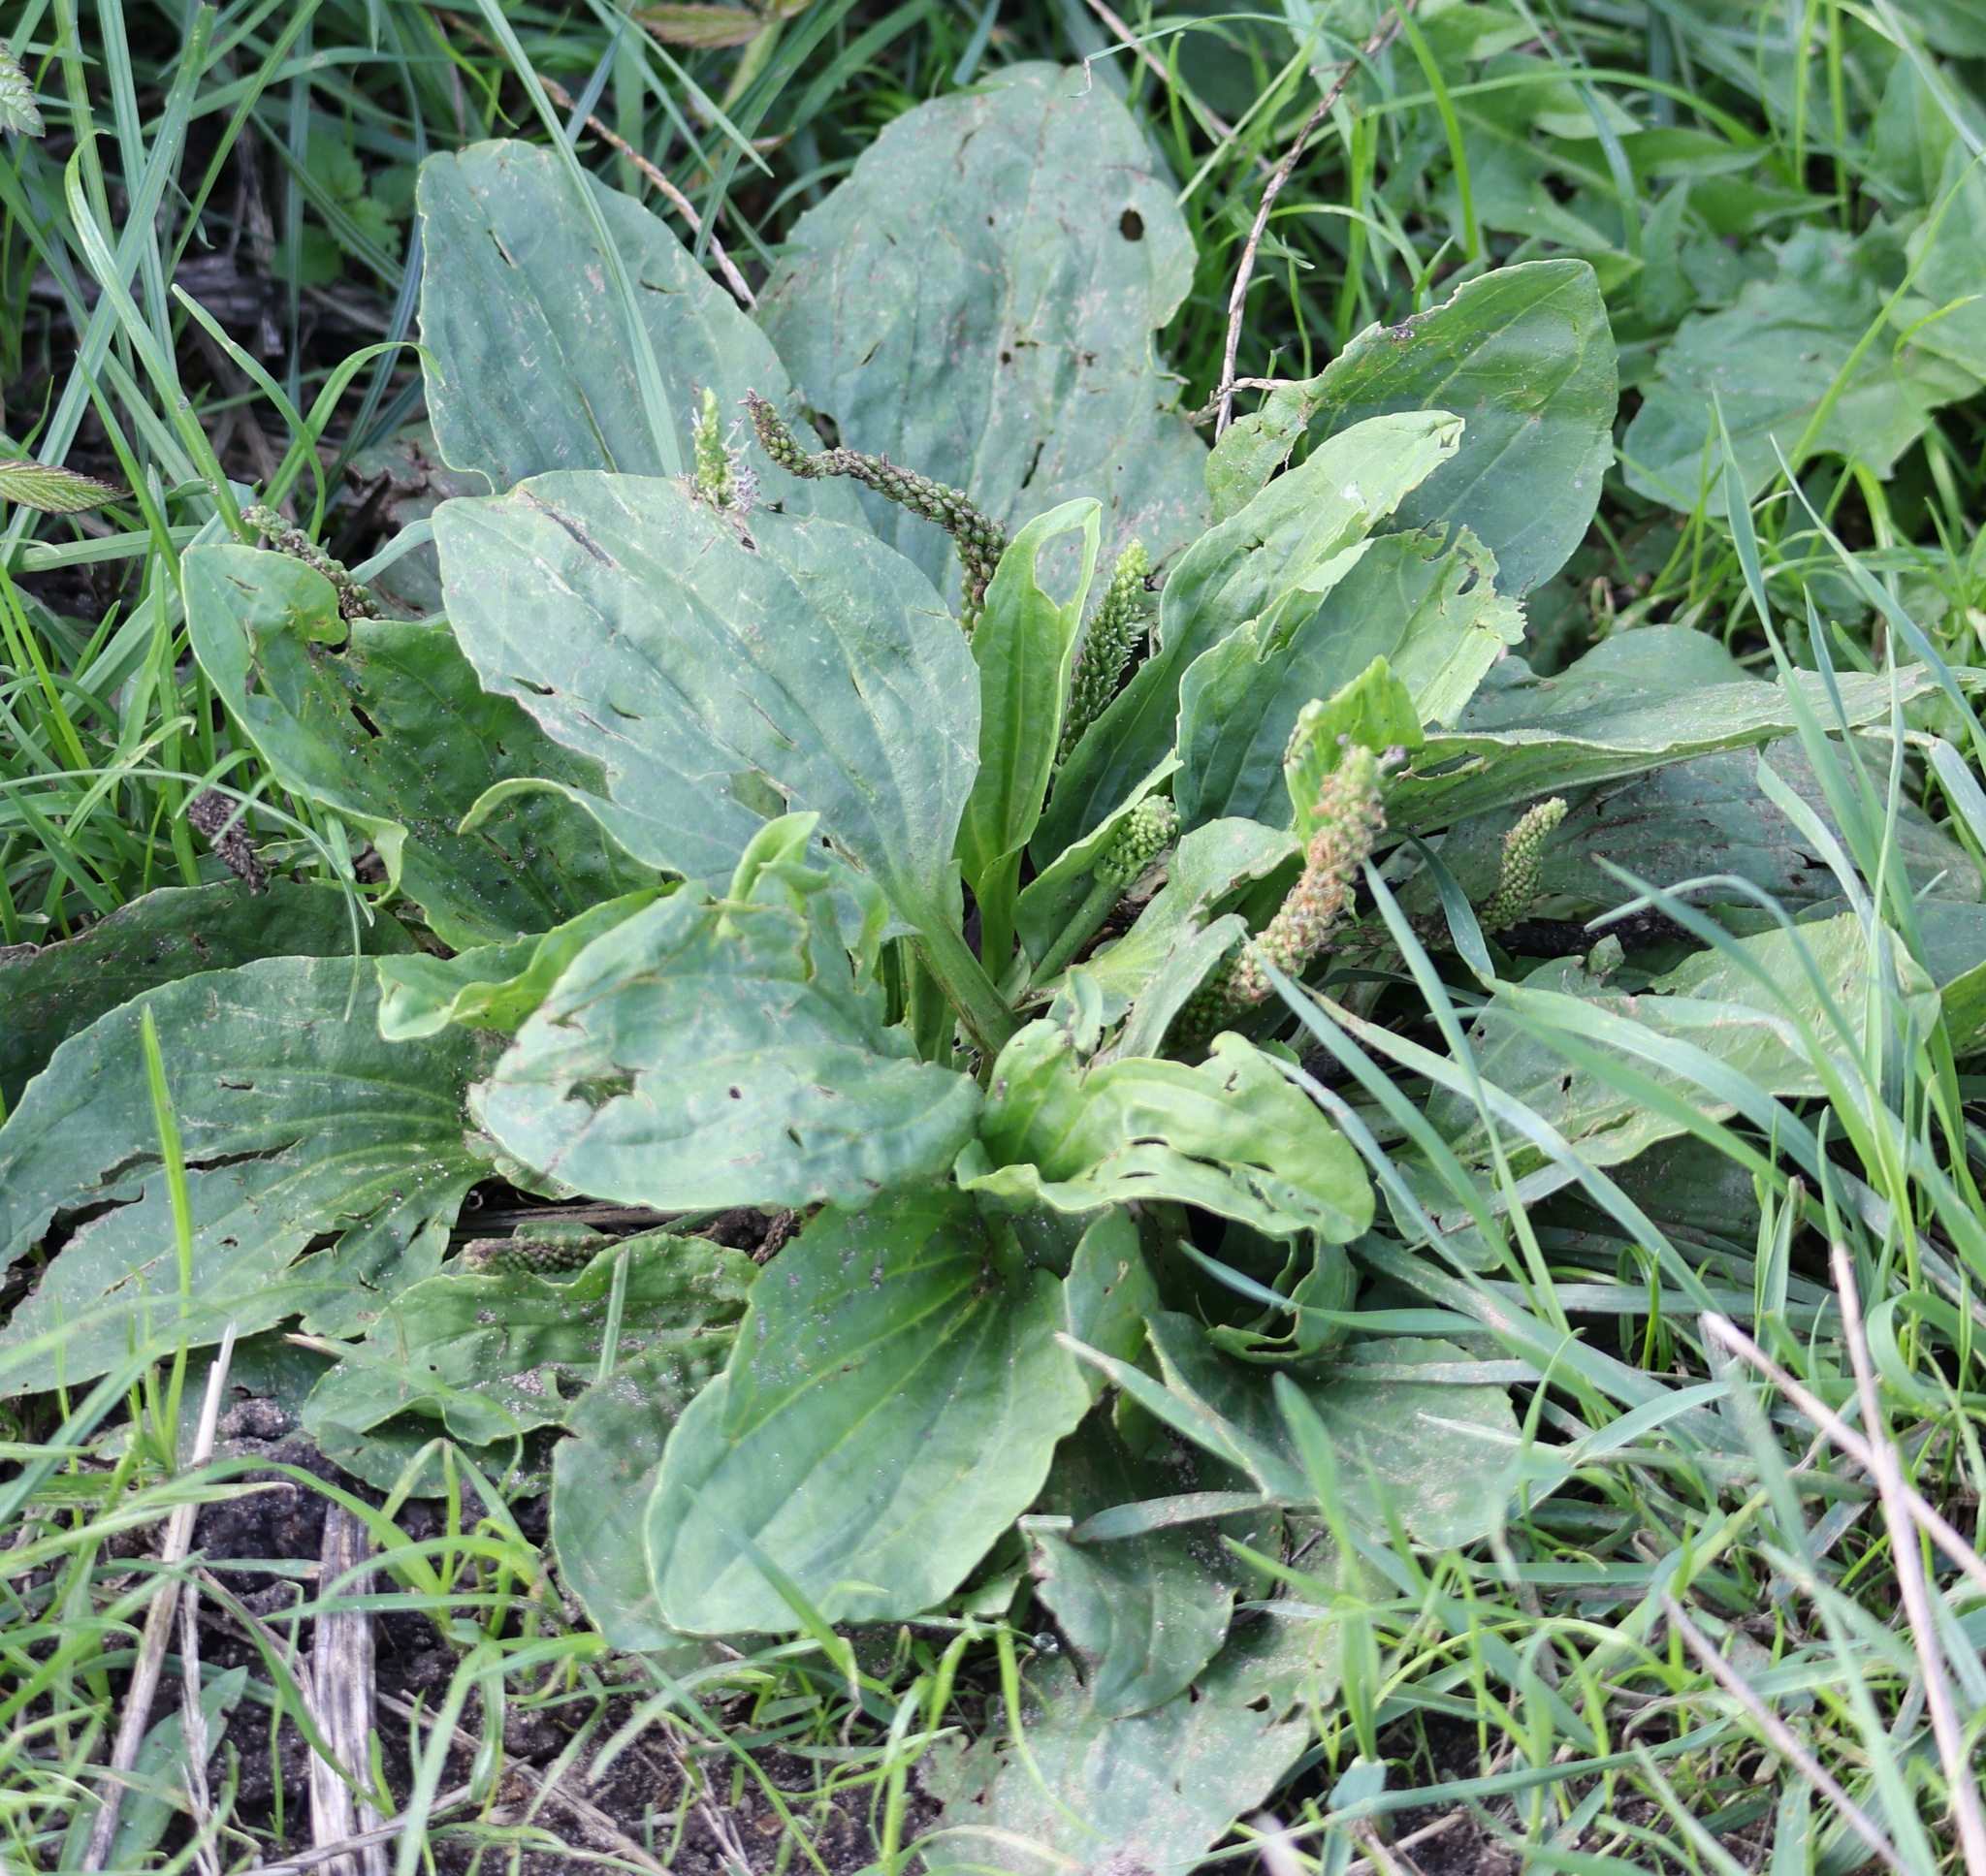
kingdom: Plantae
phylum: Tracheophyta
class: Magnoliopsida
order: Lamiales
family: Plantaginaceae
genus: Plantago
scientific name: Plantago major
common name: Common plantain
